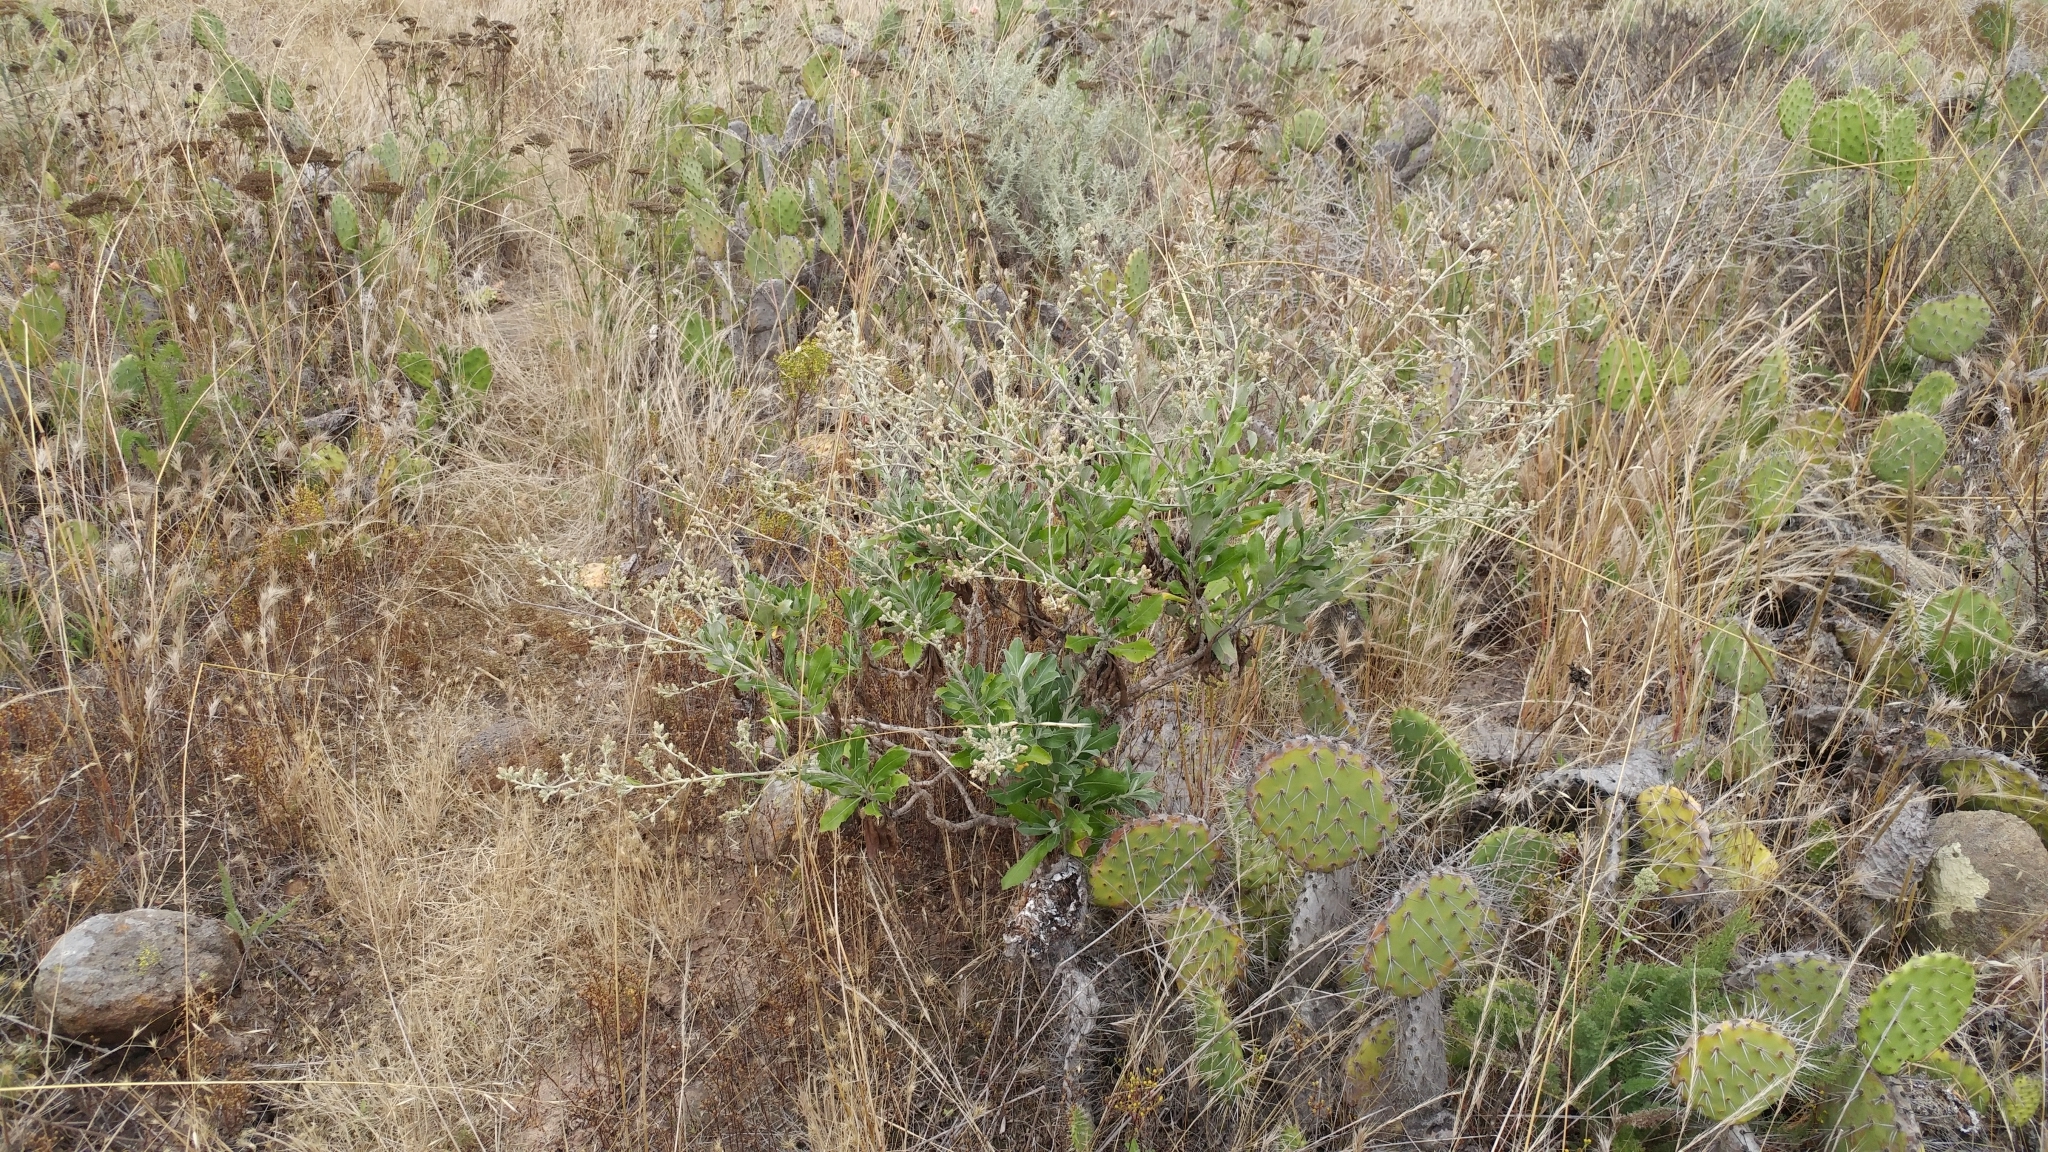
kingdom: Plantae
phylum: Tracheophyta
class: Magnoliopsida
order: Asterales
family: Asteraceae
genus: Hazardia
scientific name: Hazardia cana
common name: San clemente island bristleweed
